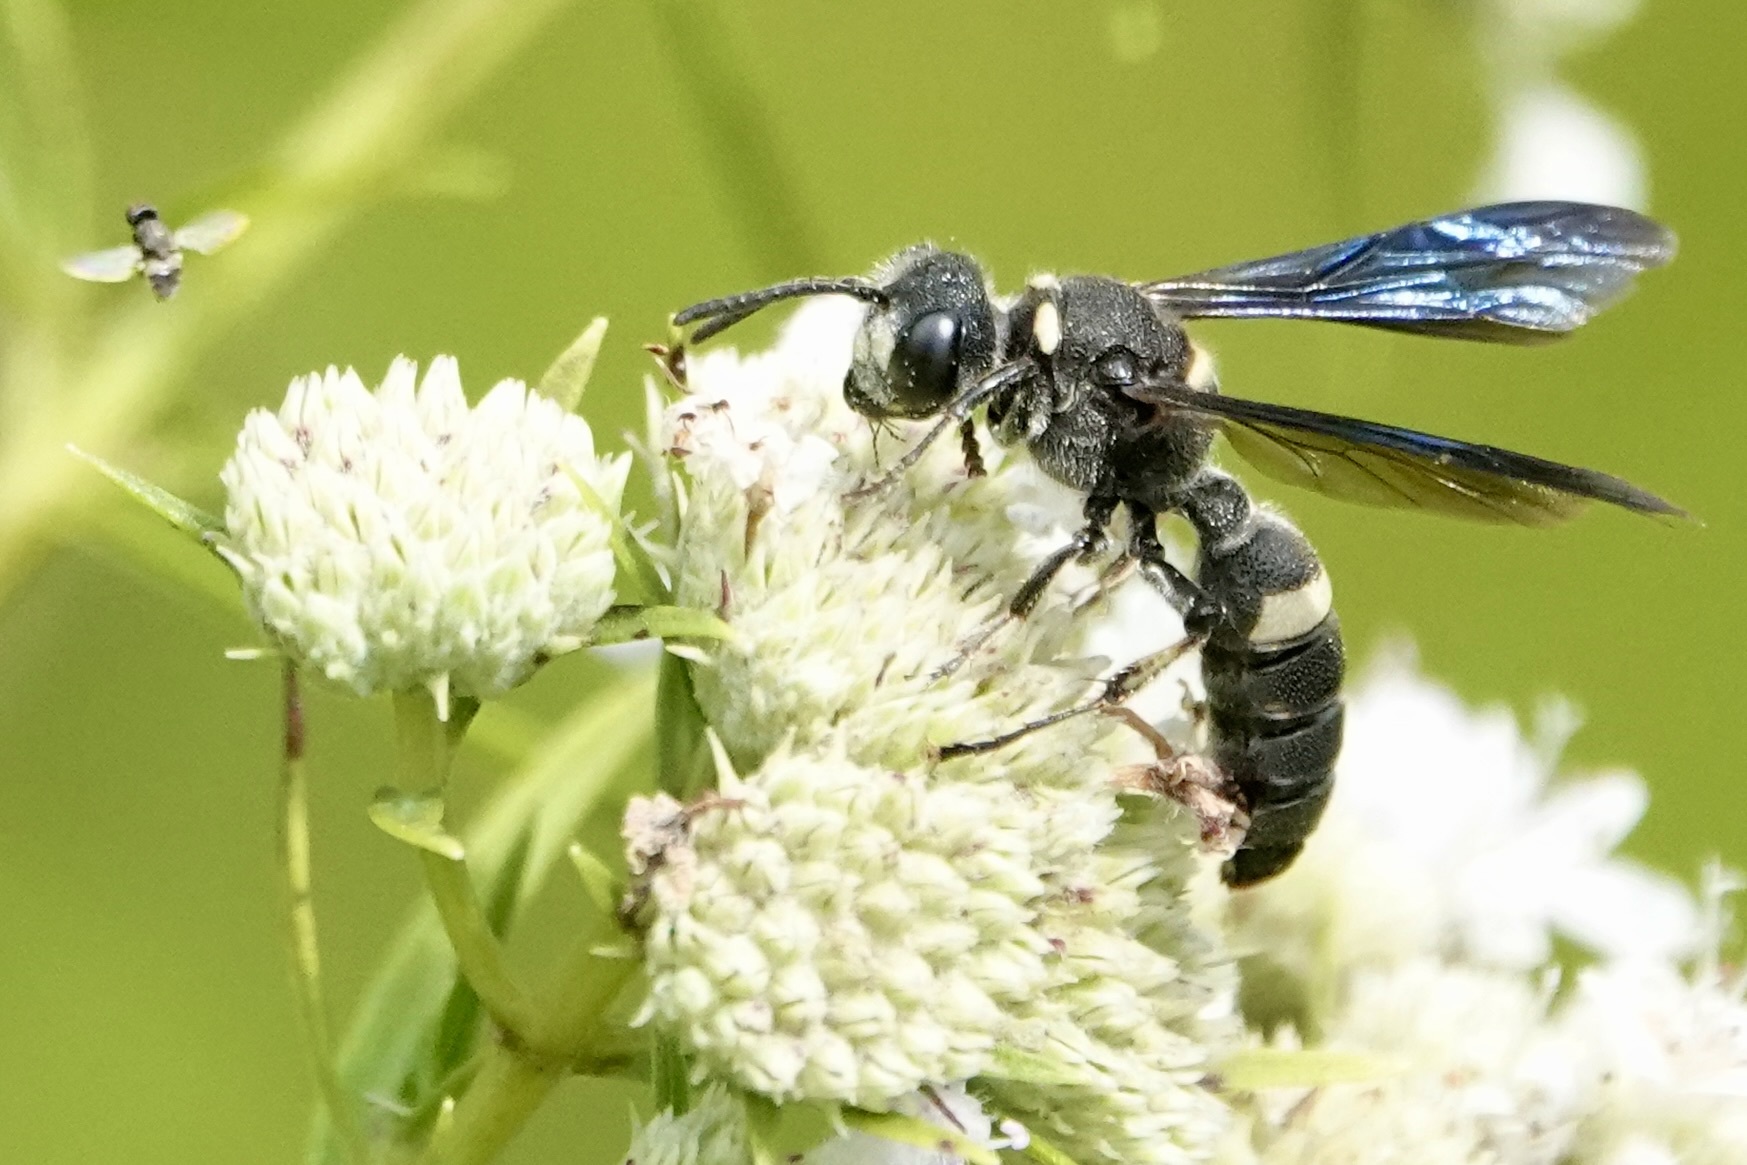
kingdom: Animalia
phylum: Arthropoda
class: Insecta
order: Hymenoptera
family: Crabronidae
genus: Cerceris
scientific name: Cerceris fumipennis
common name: Smokey-winged beetle bandit wasp
